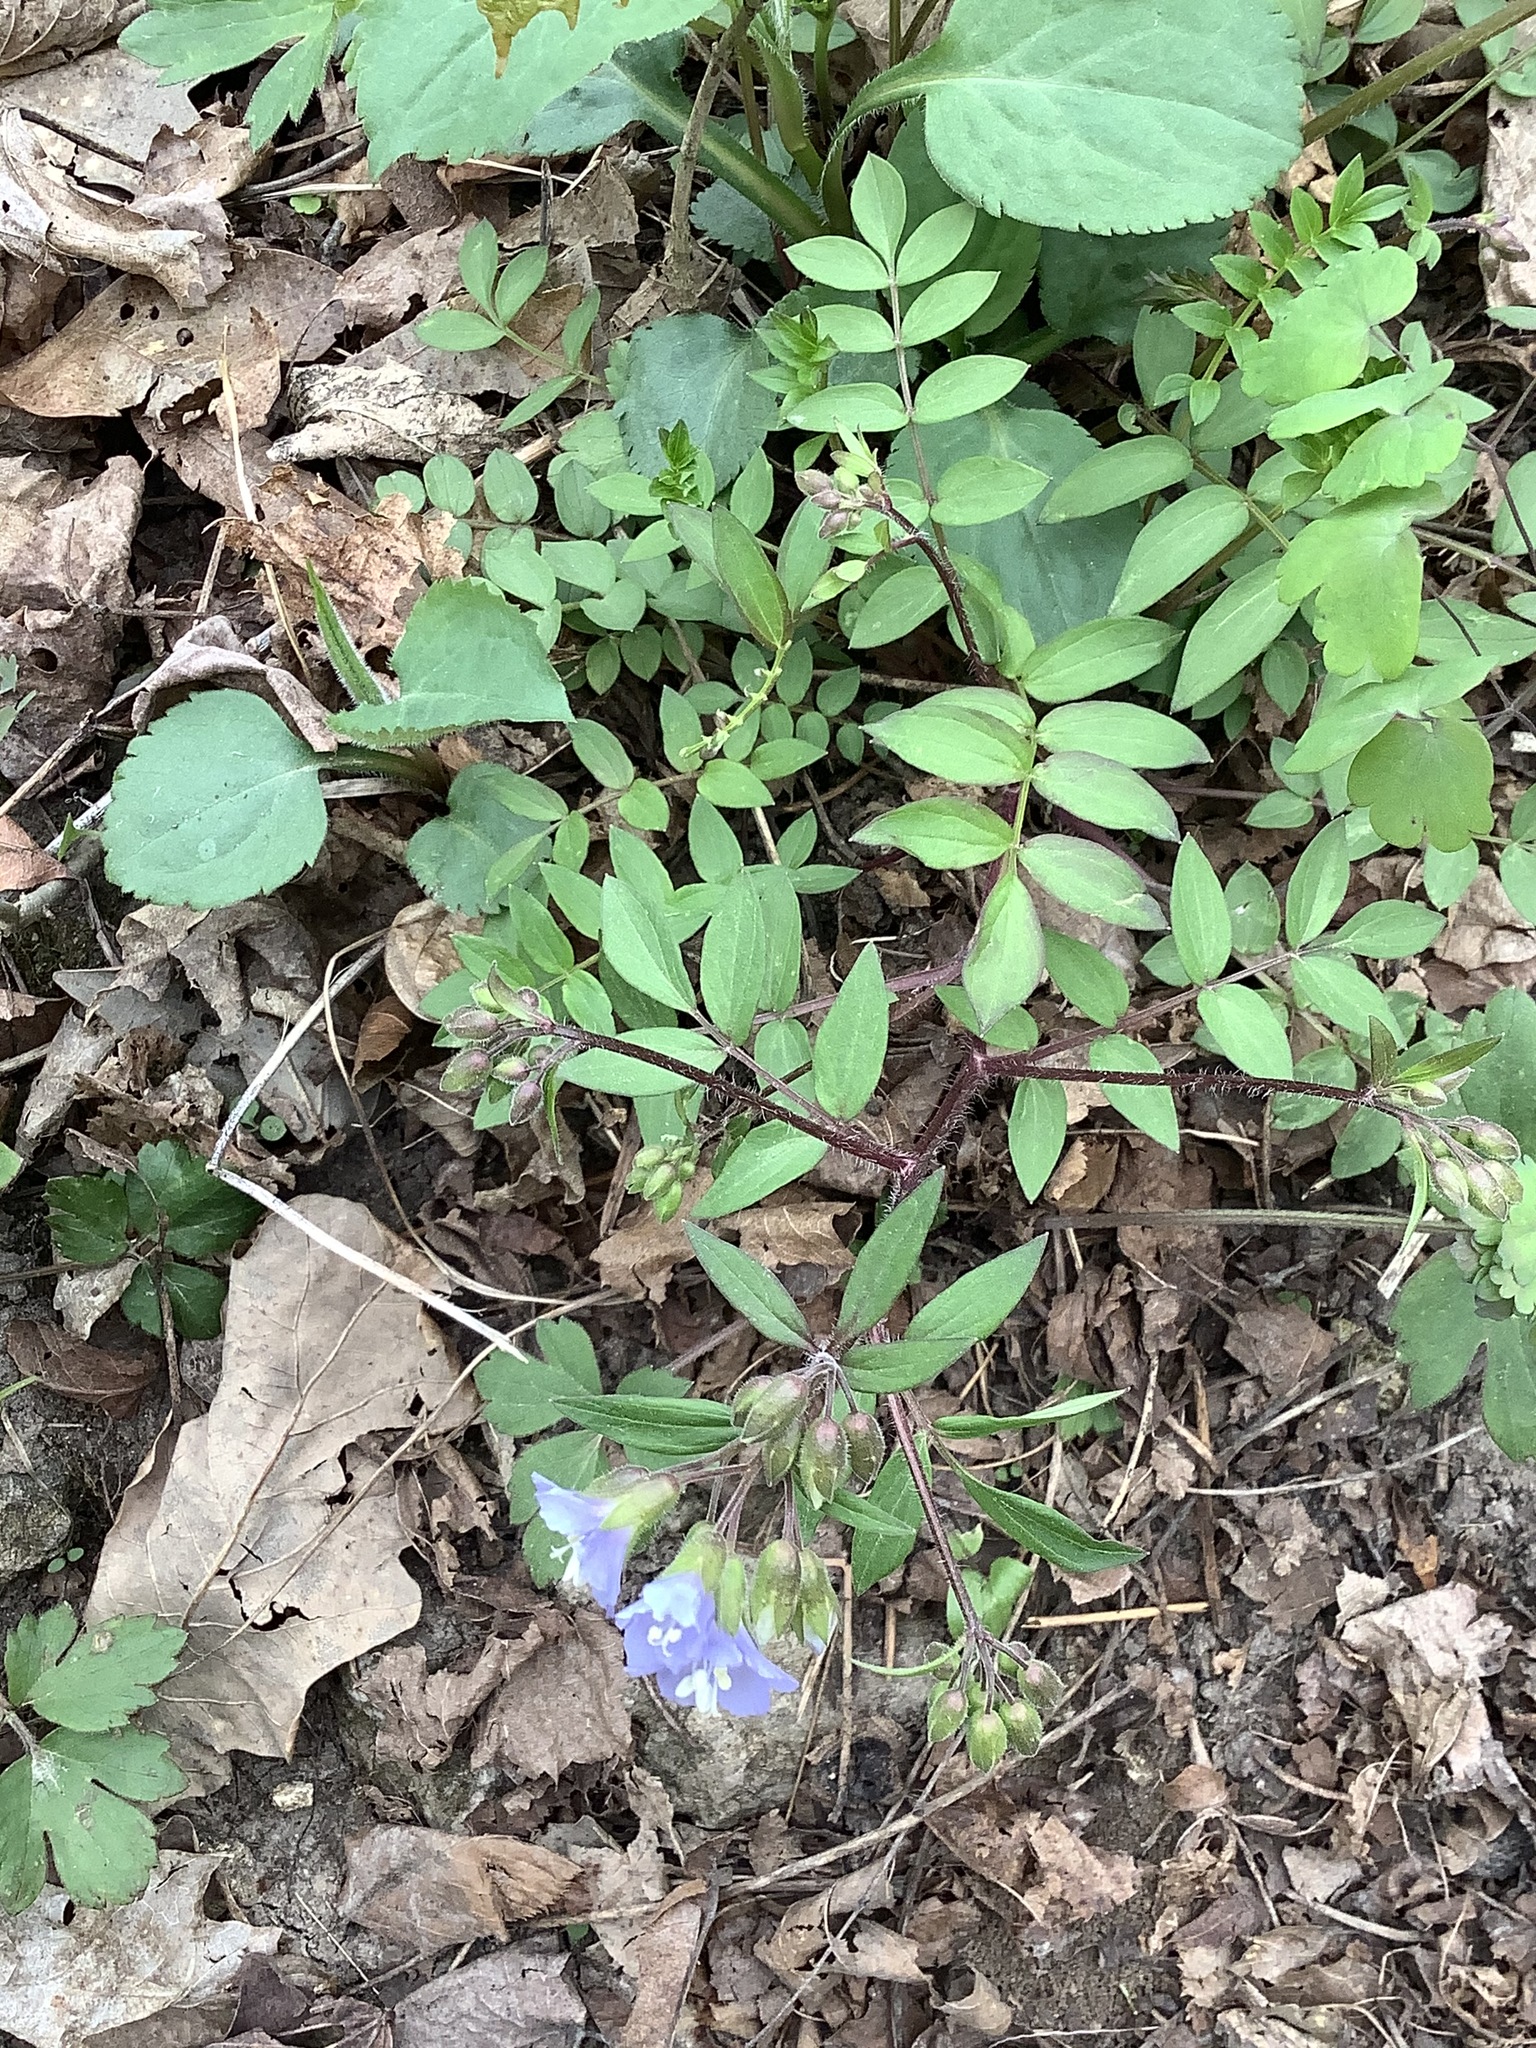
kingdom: Plantae
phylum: Tracheophyta
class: Magnoliopsida
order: Ericales
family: Polemoniaceae
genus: Polemonium
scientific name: Polemonium reptans
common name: Creeping jacob's-ladder
